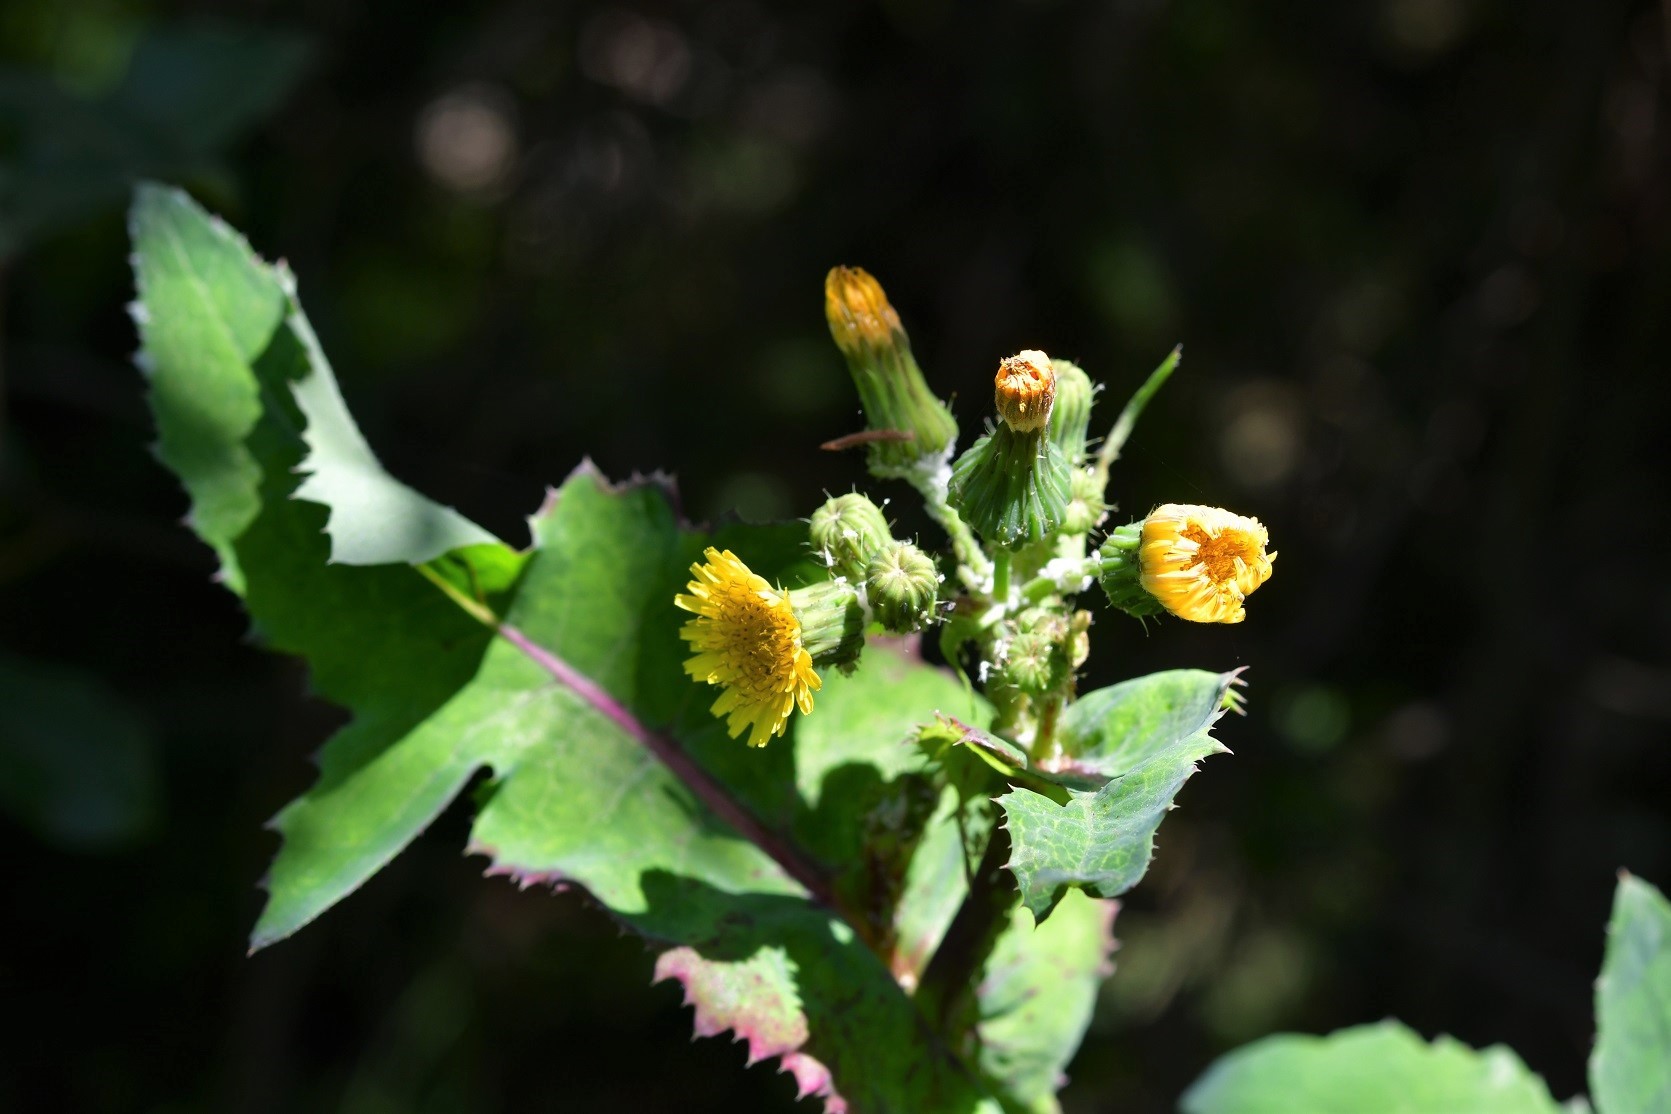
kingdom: Plantae
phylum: Tracheophyta
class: Magnoliopsida
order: Asterales
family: Asteraceae
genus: Sonchus
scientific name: Sonchus oleraceus
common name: Common sowthistle
